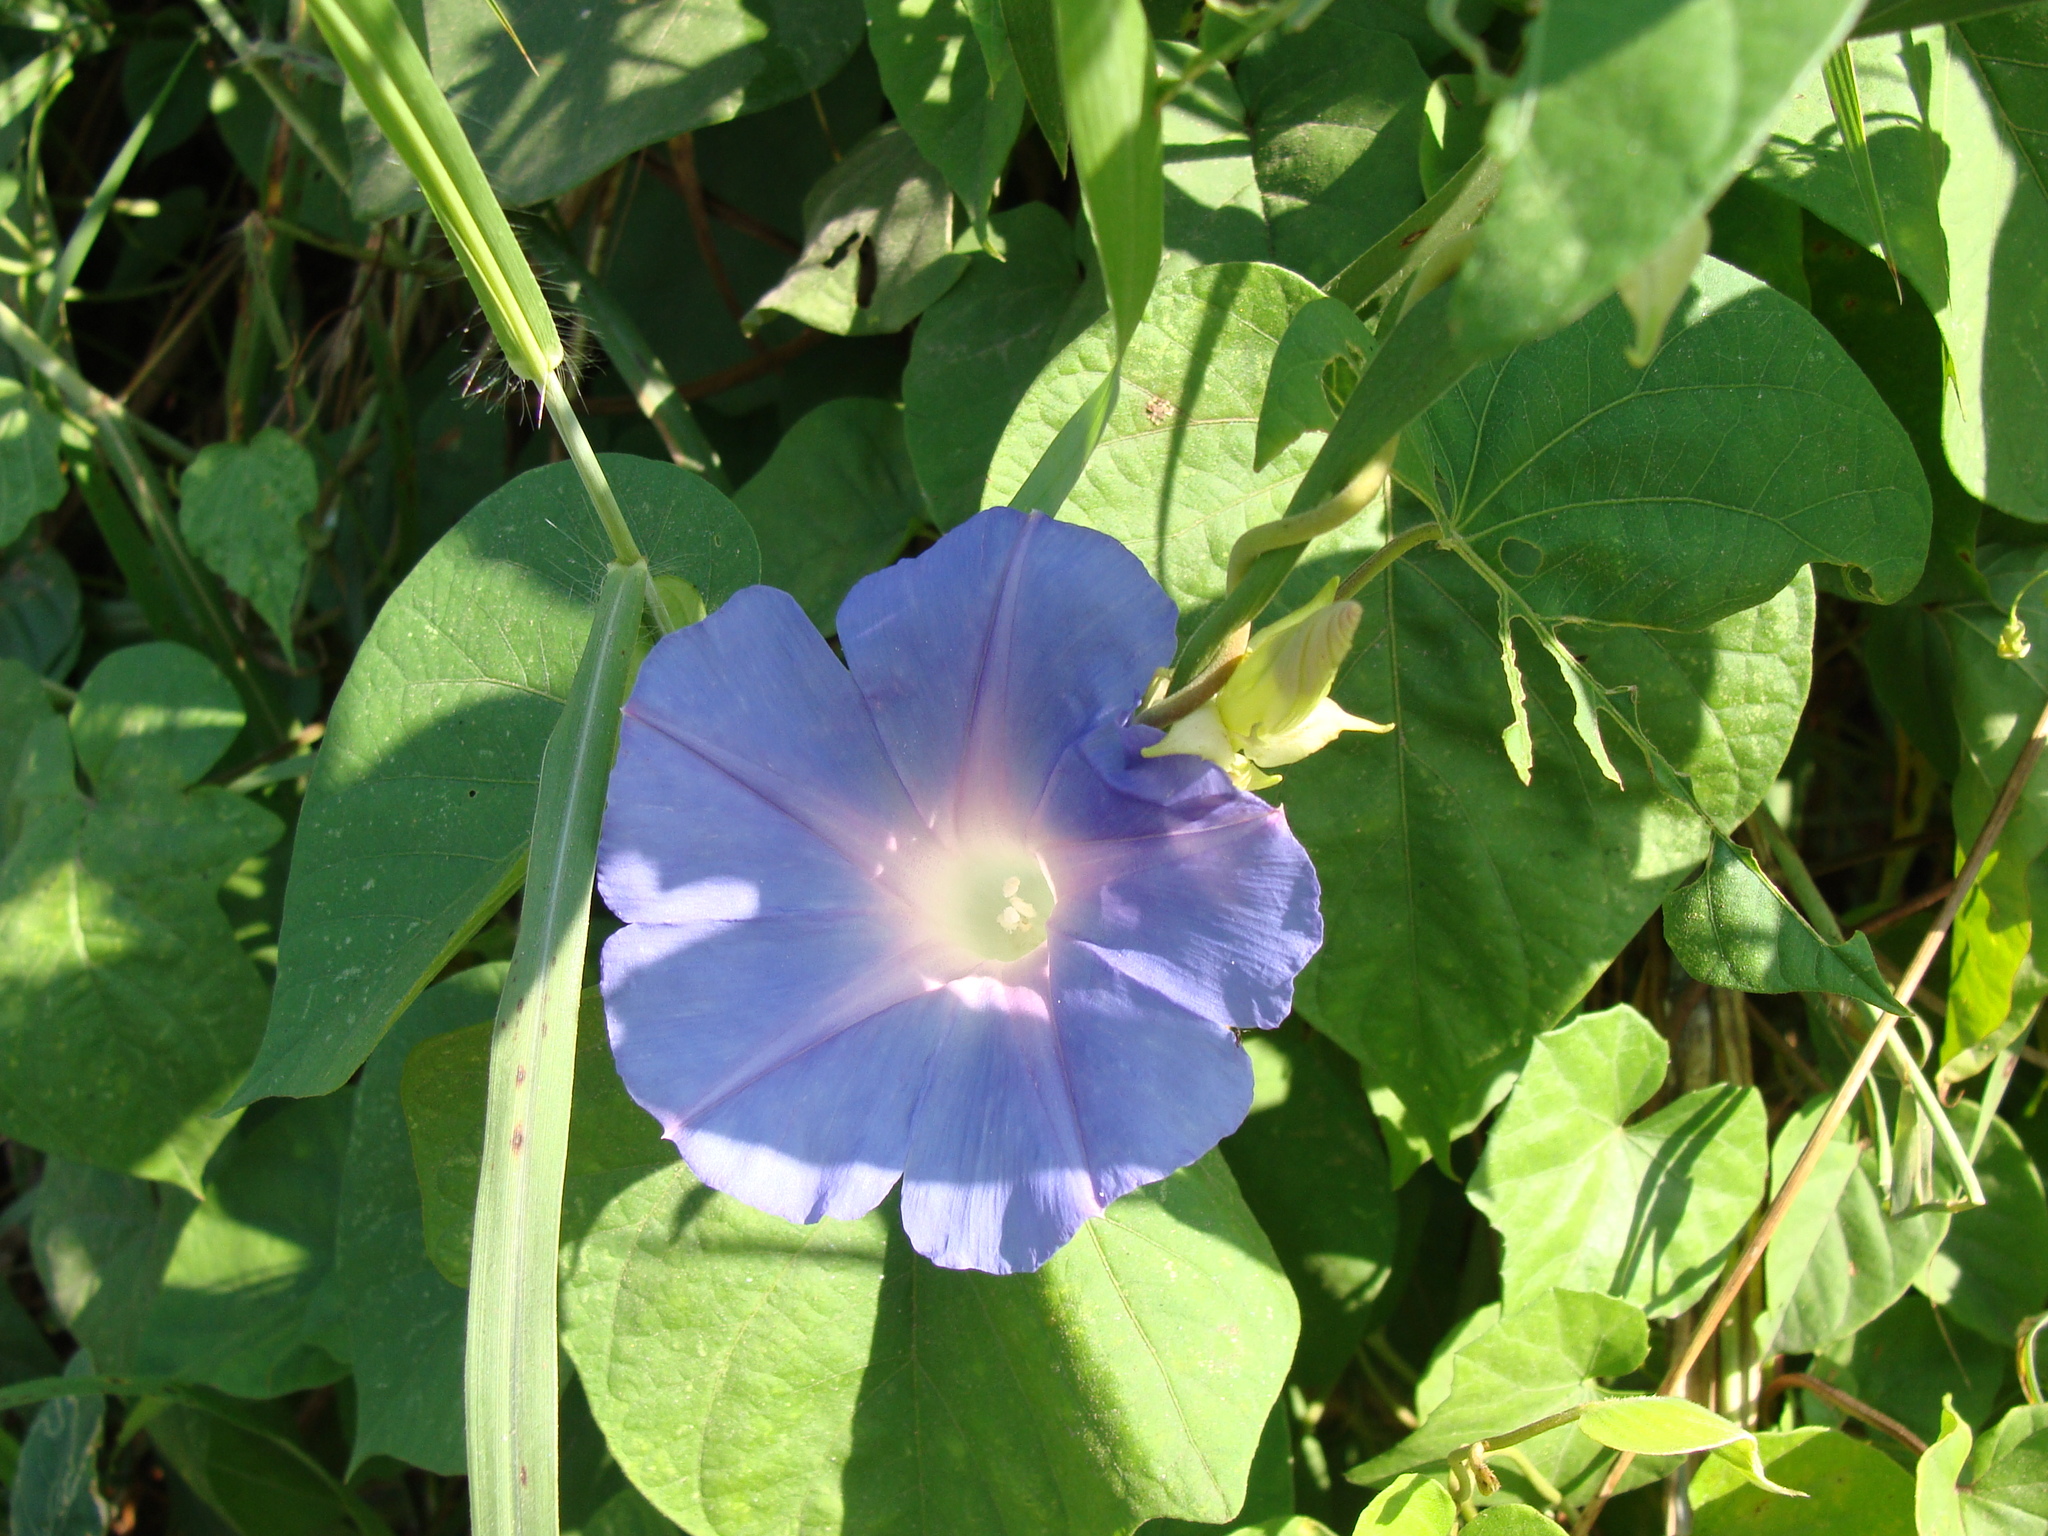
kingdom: Plantae
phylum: Tracheophyta
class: Magnoliopsida
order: Solanales
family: Convolvulaceae
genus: Ipomoea
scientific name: Ipomoea mitchelliae
